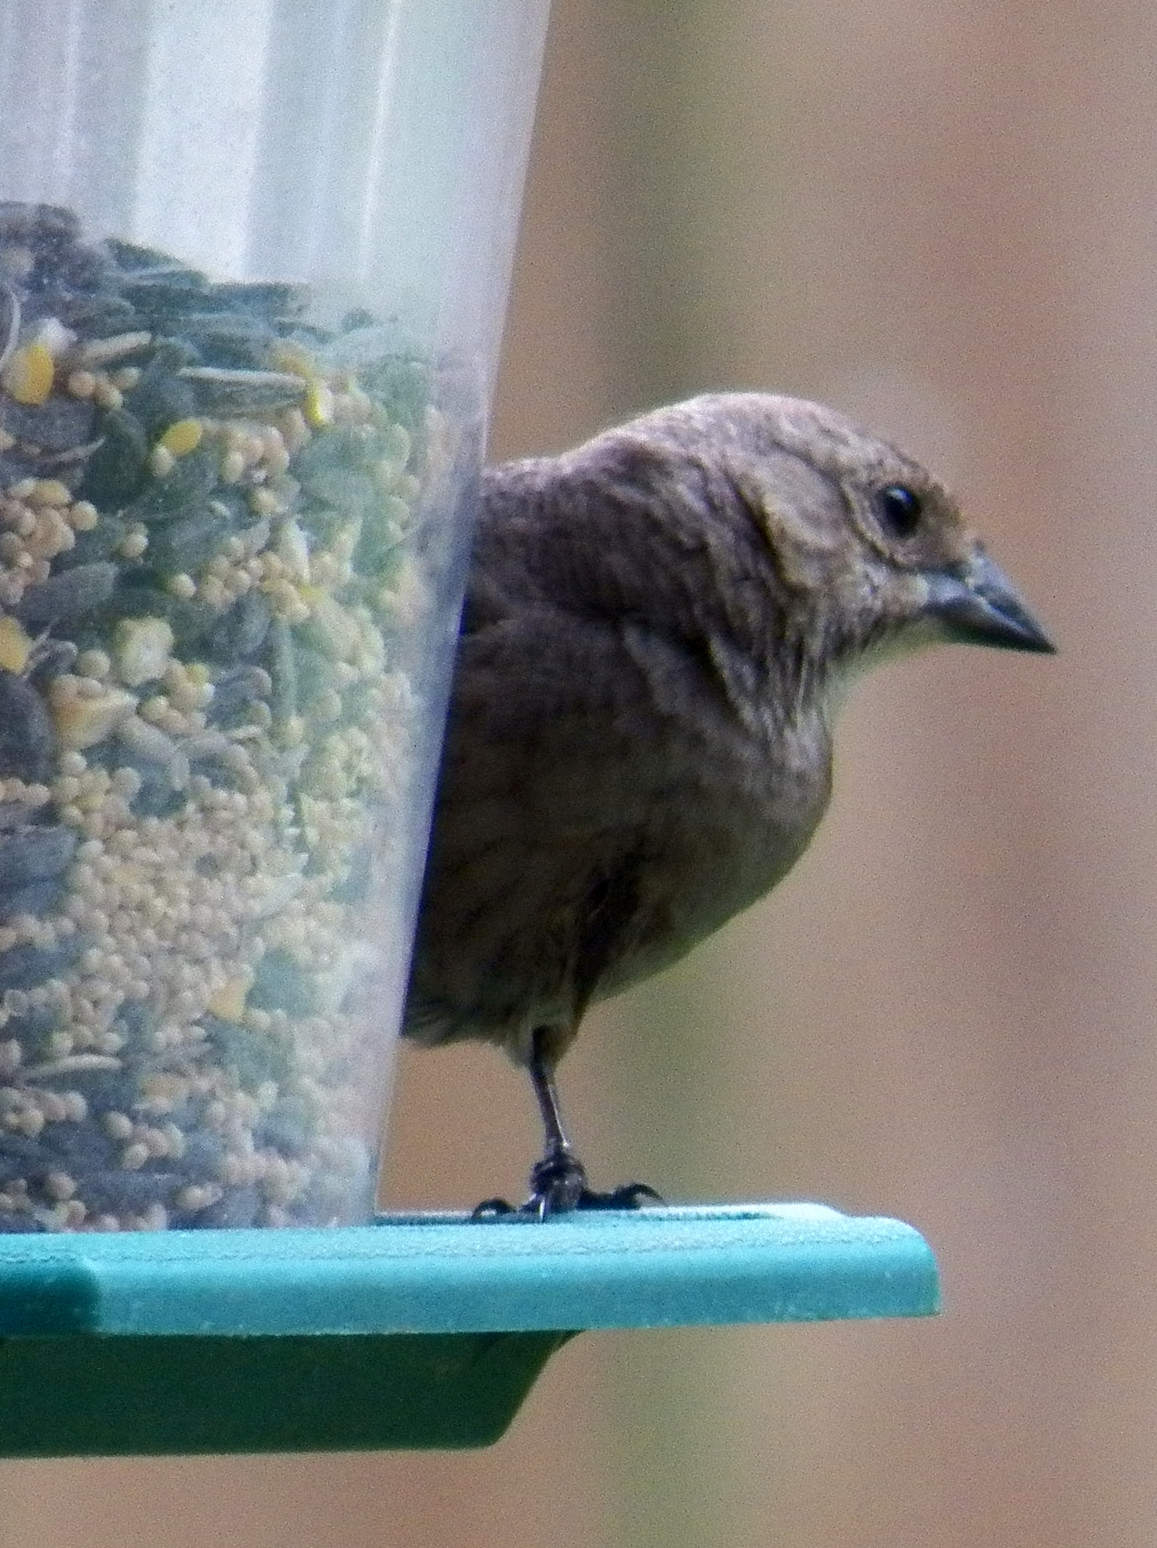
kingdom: Animalia
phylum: Chordata
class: Aves
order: Passeriformes
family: Icteridae
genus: Molothrus
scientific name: Molothrus ater
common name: Brown-headed cowbird
